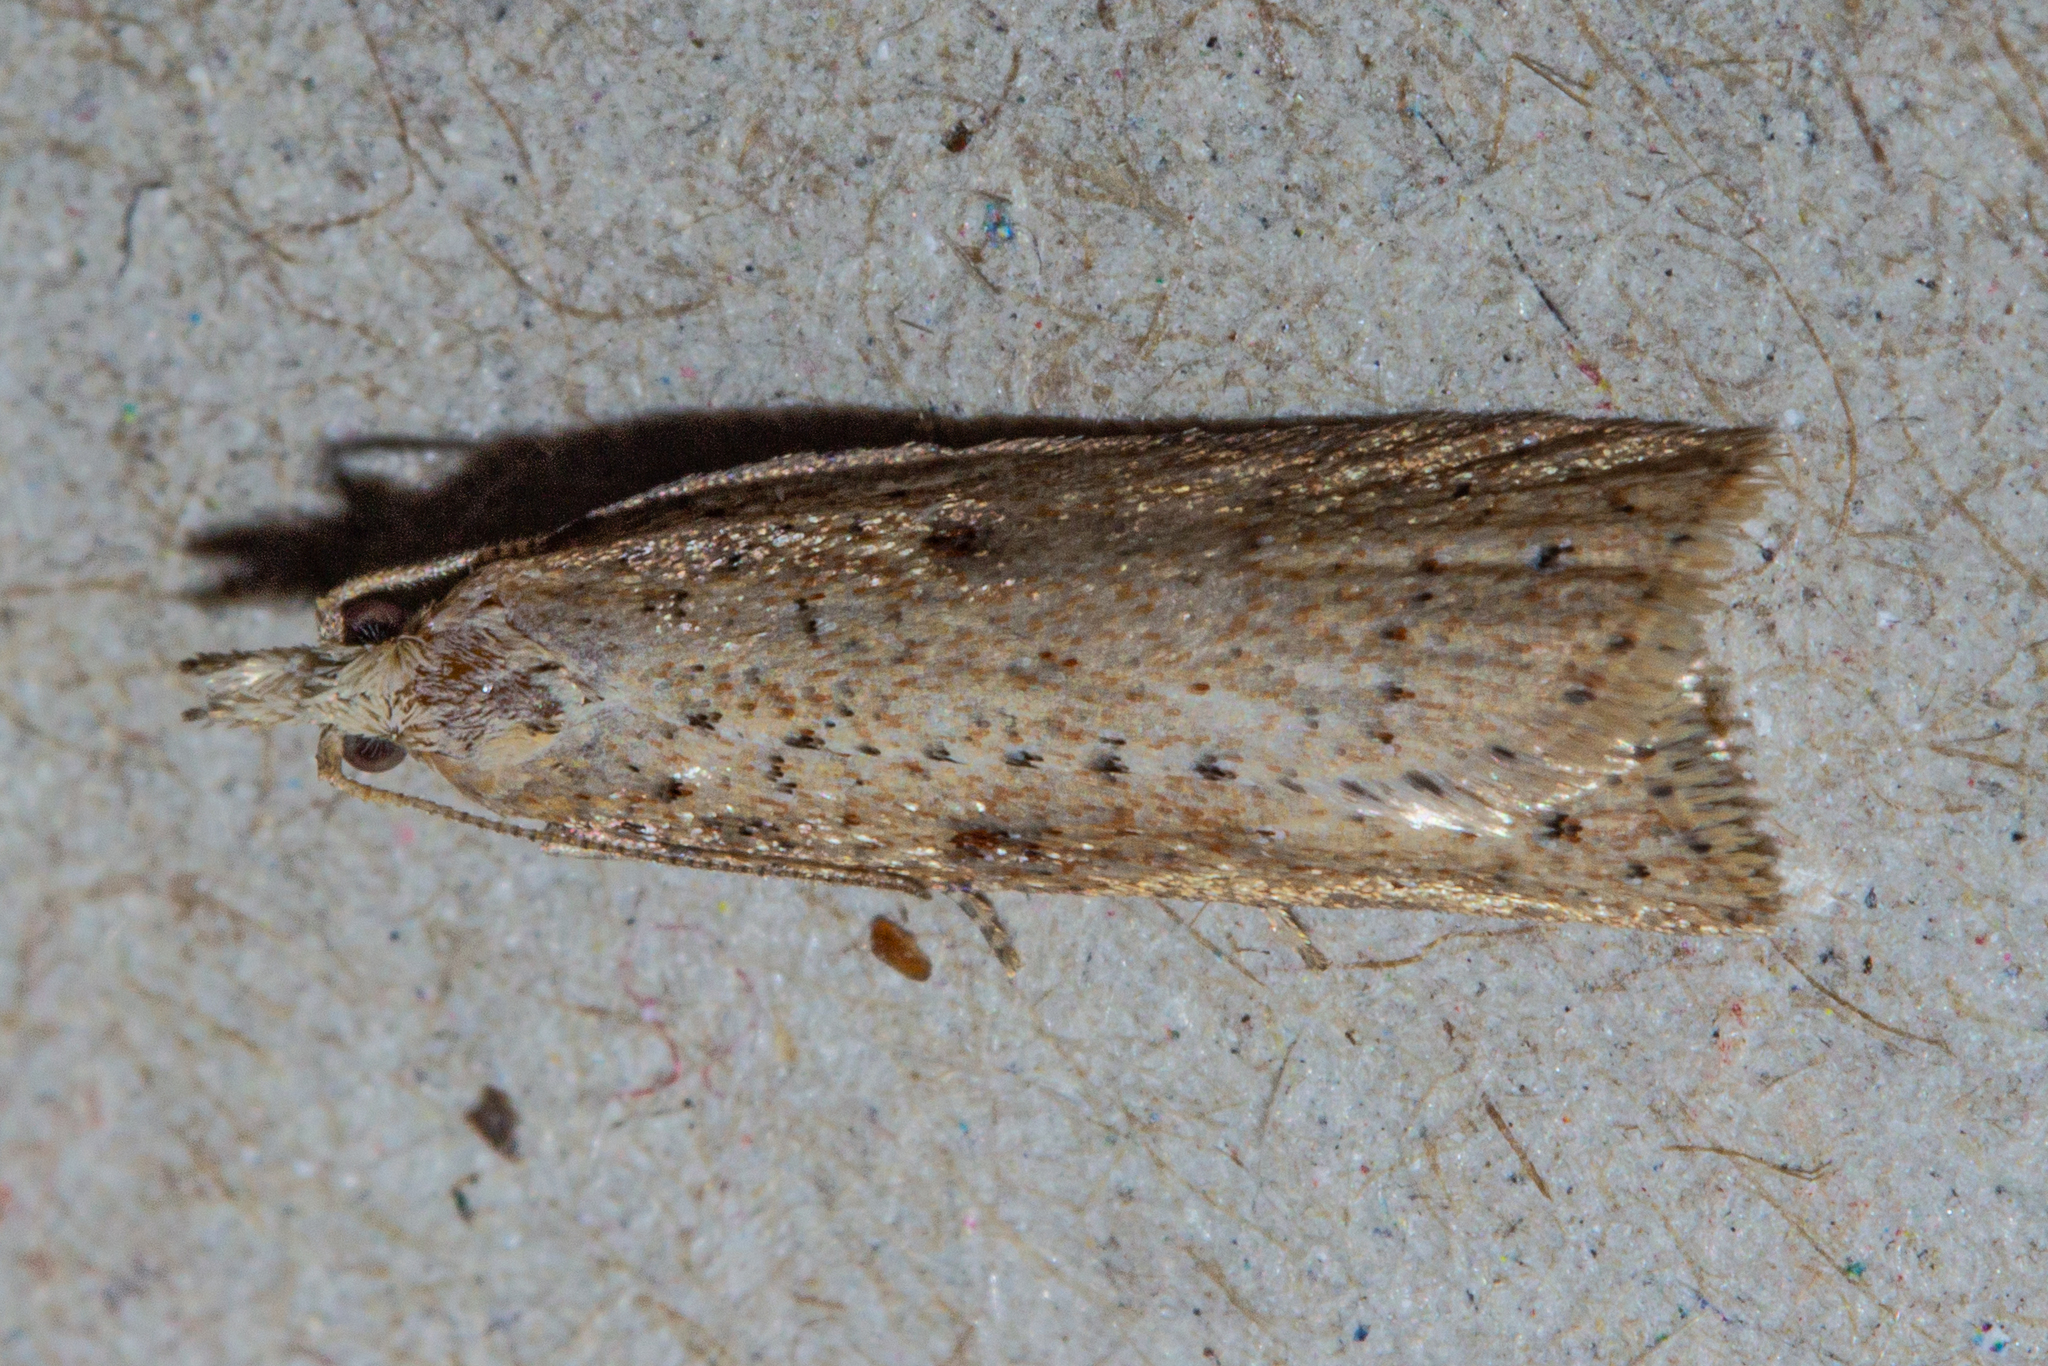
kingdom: Animalia
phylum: Arthropoda
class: Insecta
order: Lepidoptera
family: Tortricidae
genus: Apoctena
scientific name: Apoctena persecta
